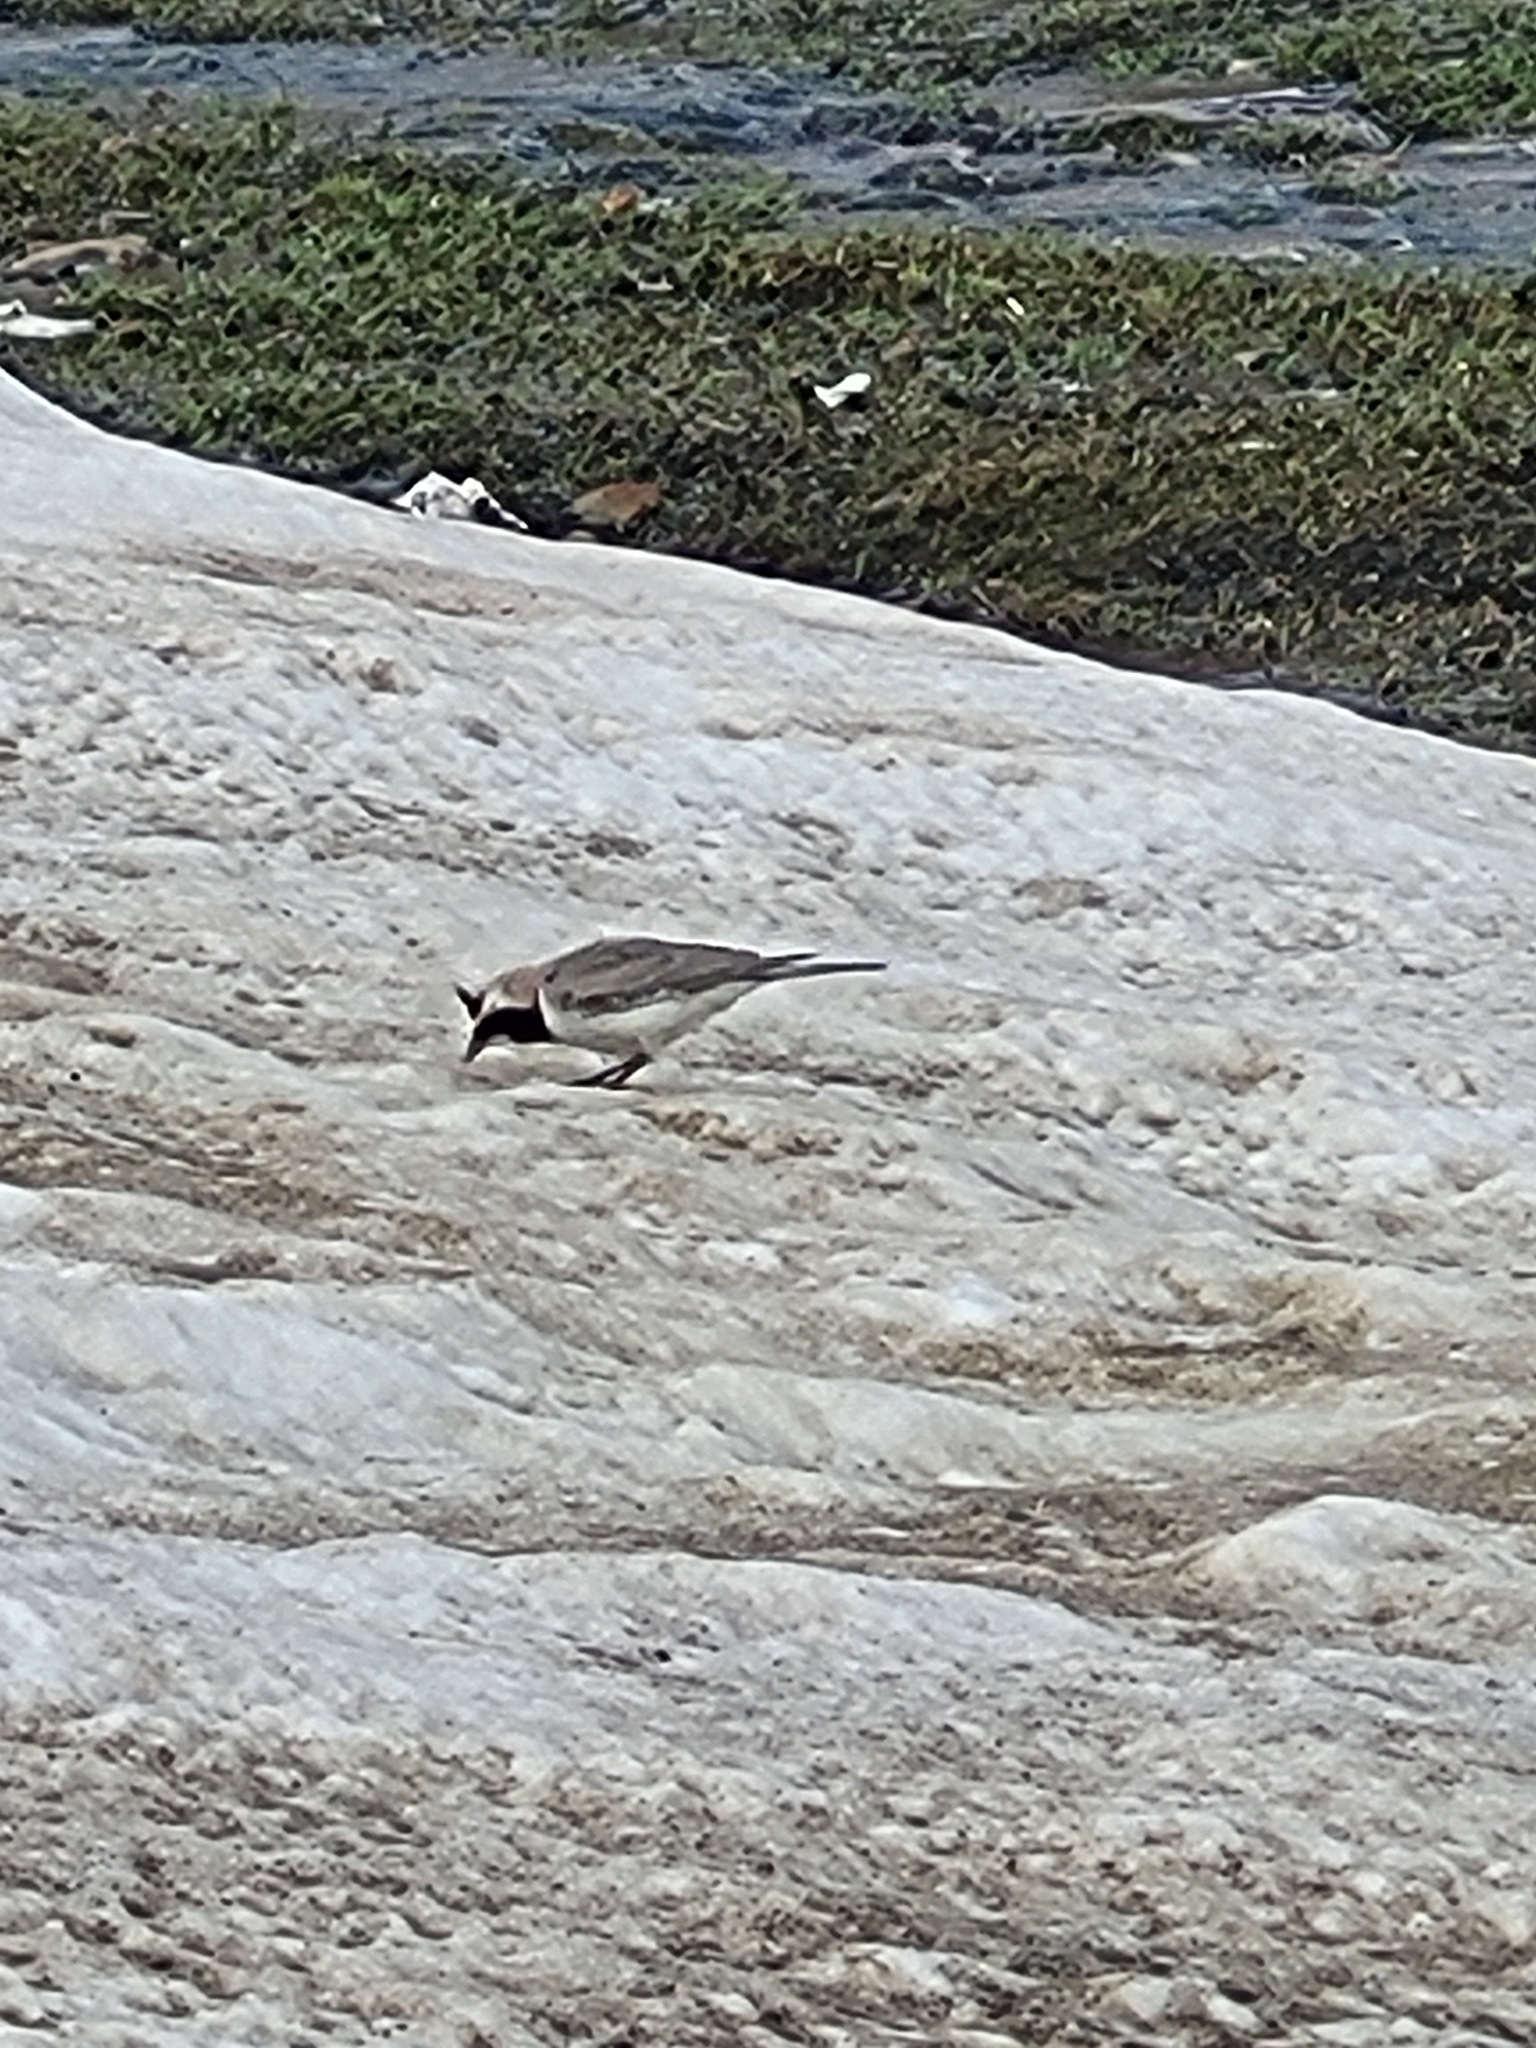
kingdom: Animalia
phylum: Chordata
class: Aves
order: Passeriformes
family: Alaudidae
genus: Eremophila
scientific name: Eremophila alpestris
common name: Horned lark
